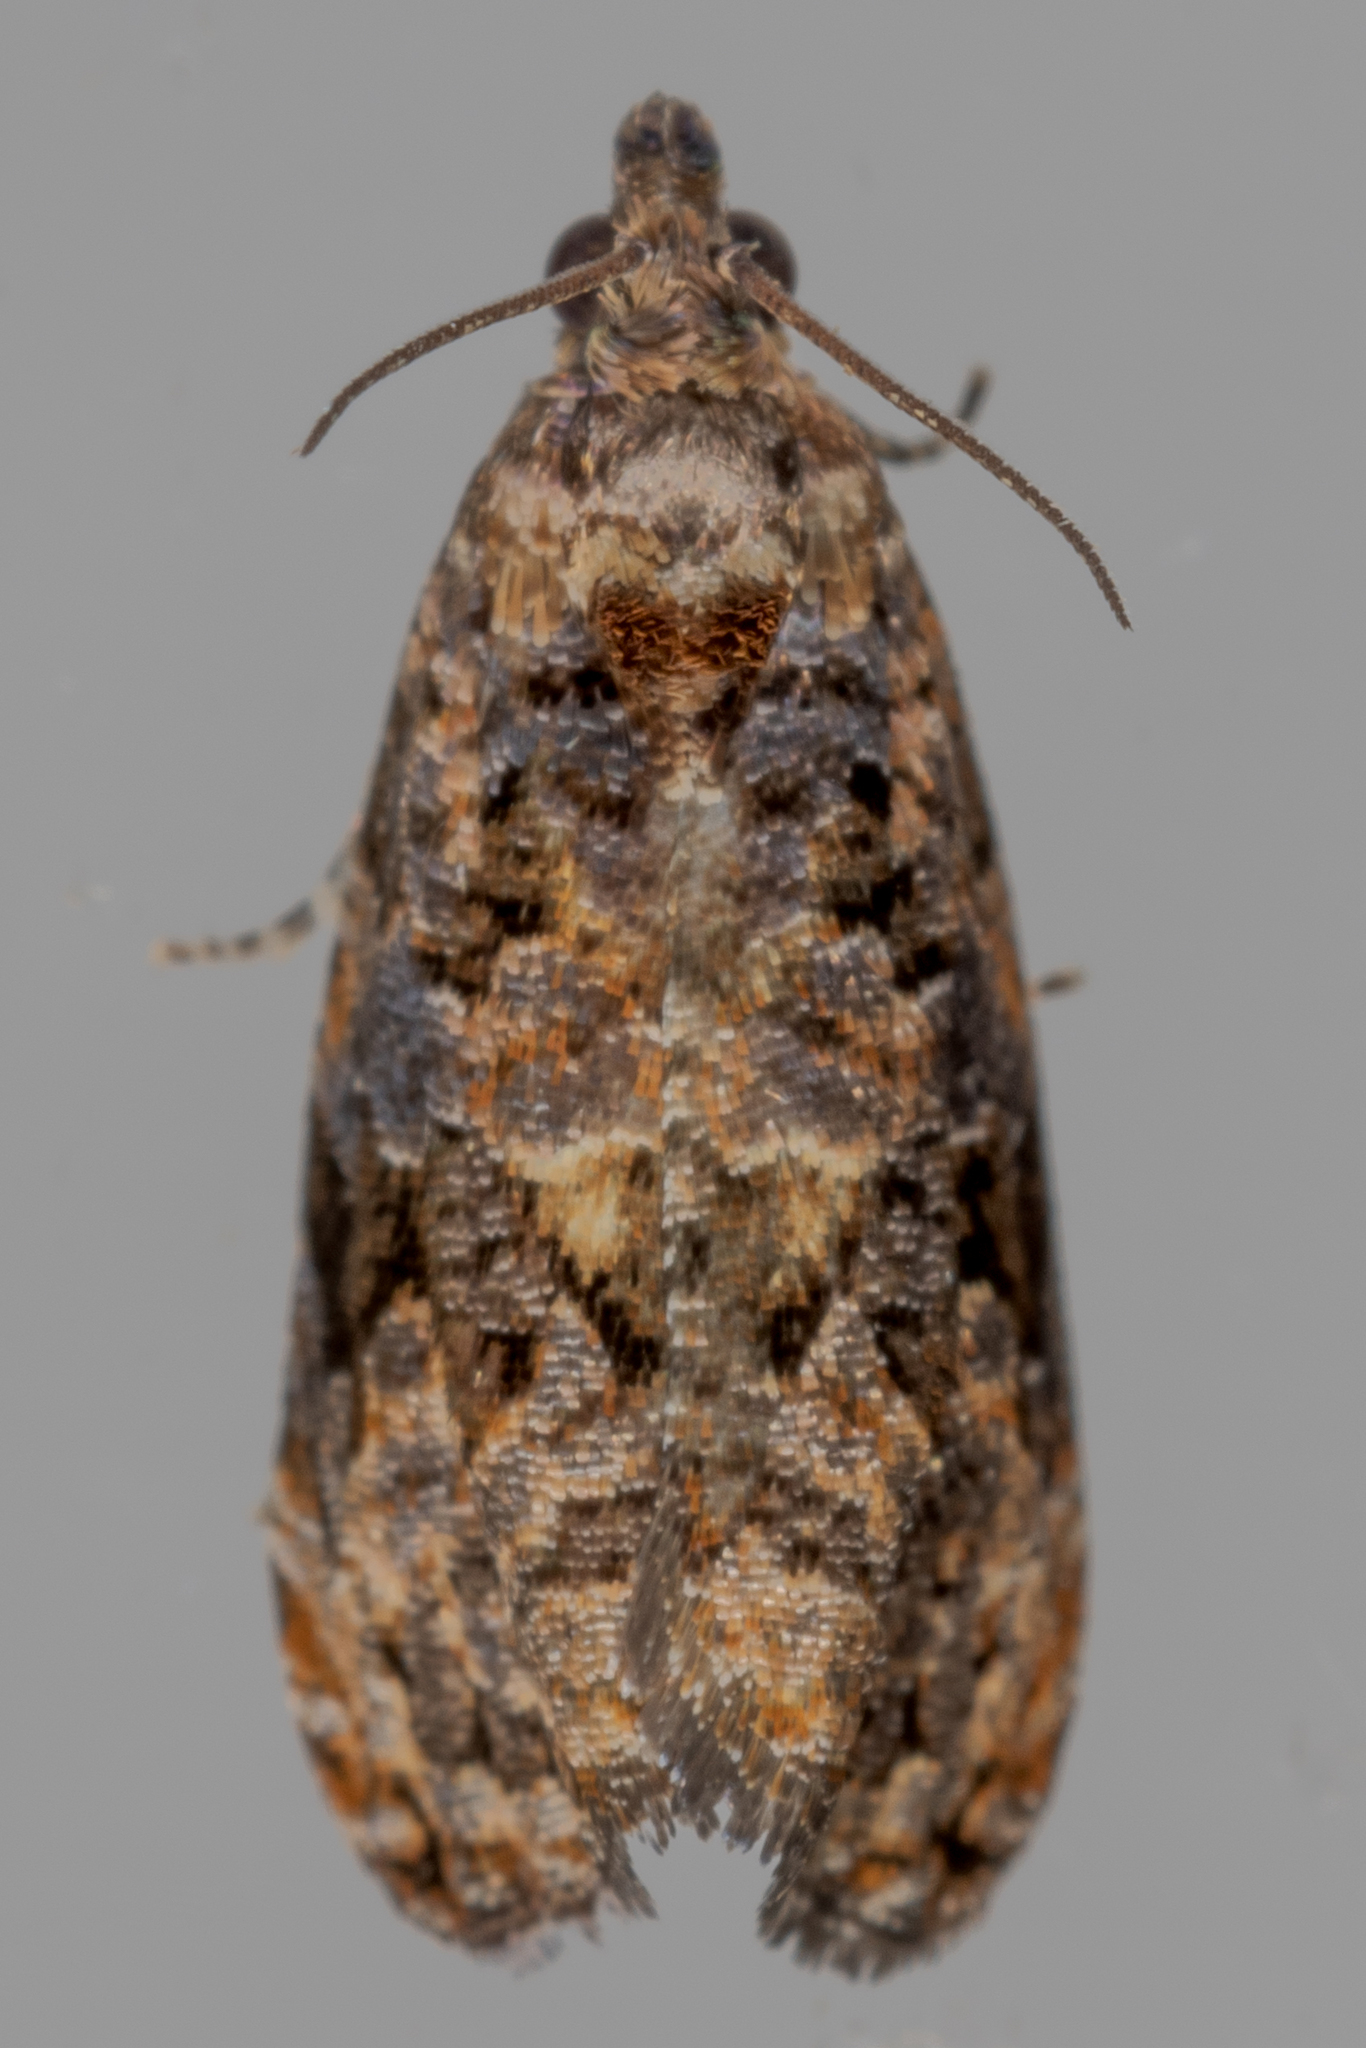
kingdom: Animalia
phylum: Arthropoda
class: Insecta
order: Lepidoptera
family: Tortricidae
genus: Endothenia
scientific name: Endothenia hebesana
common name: Verbena bud moth
